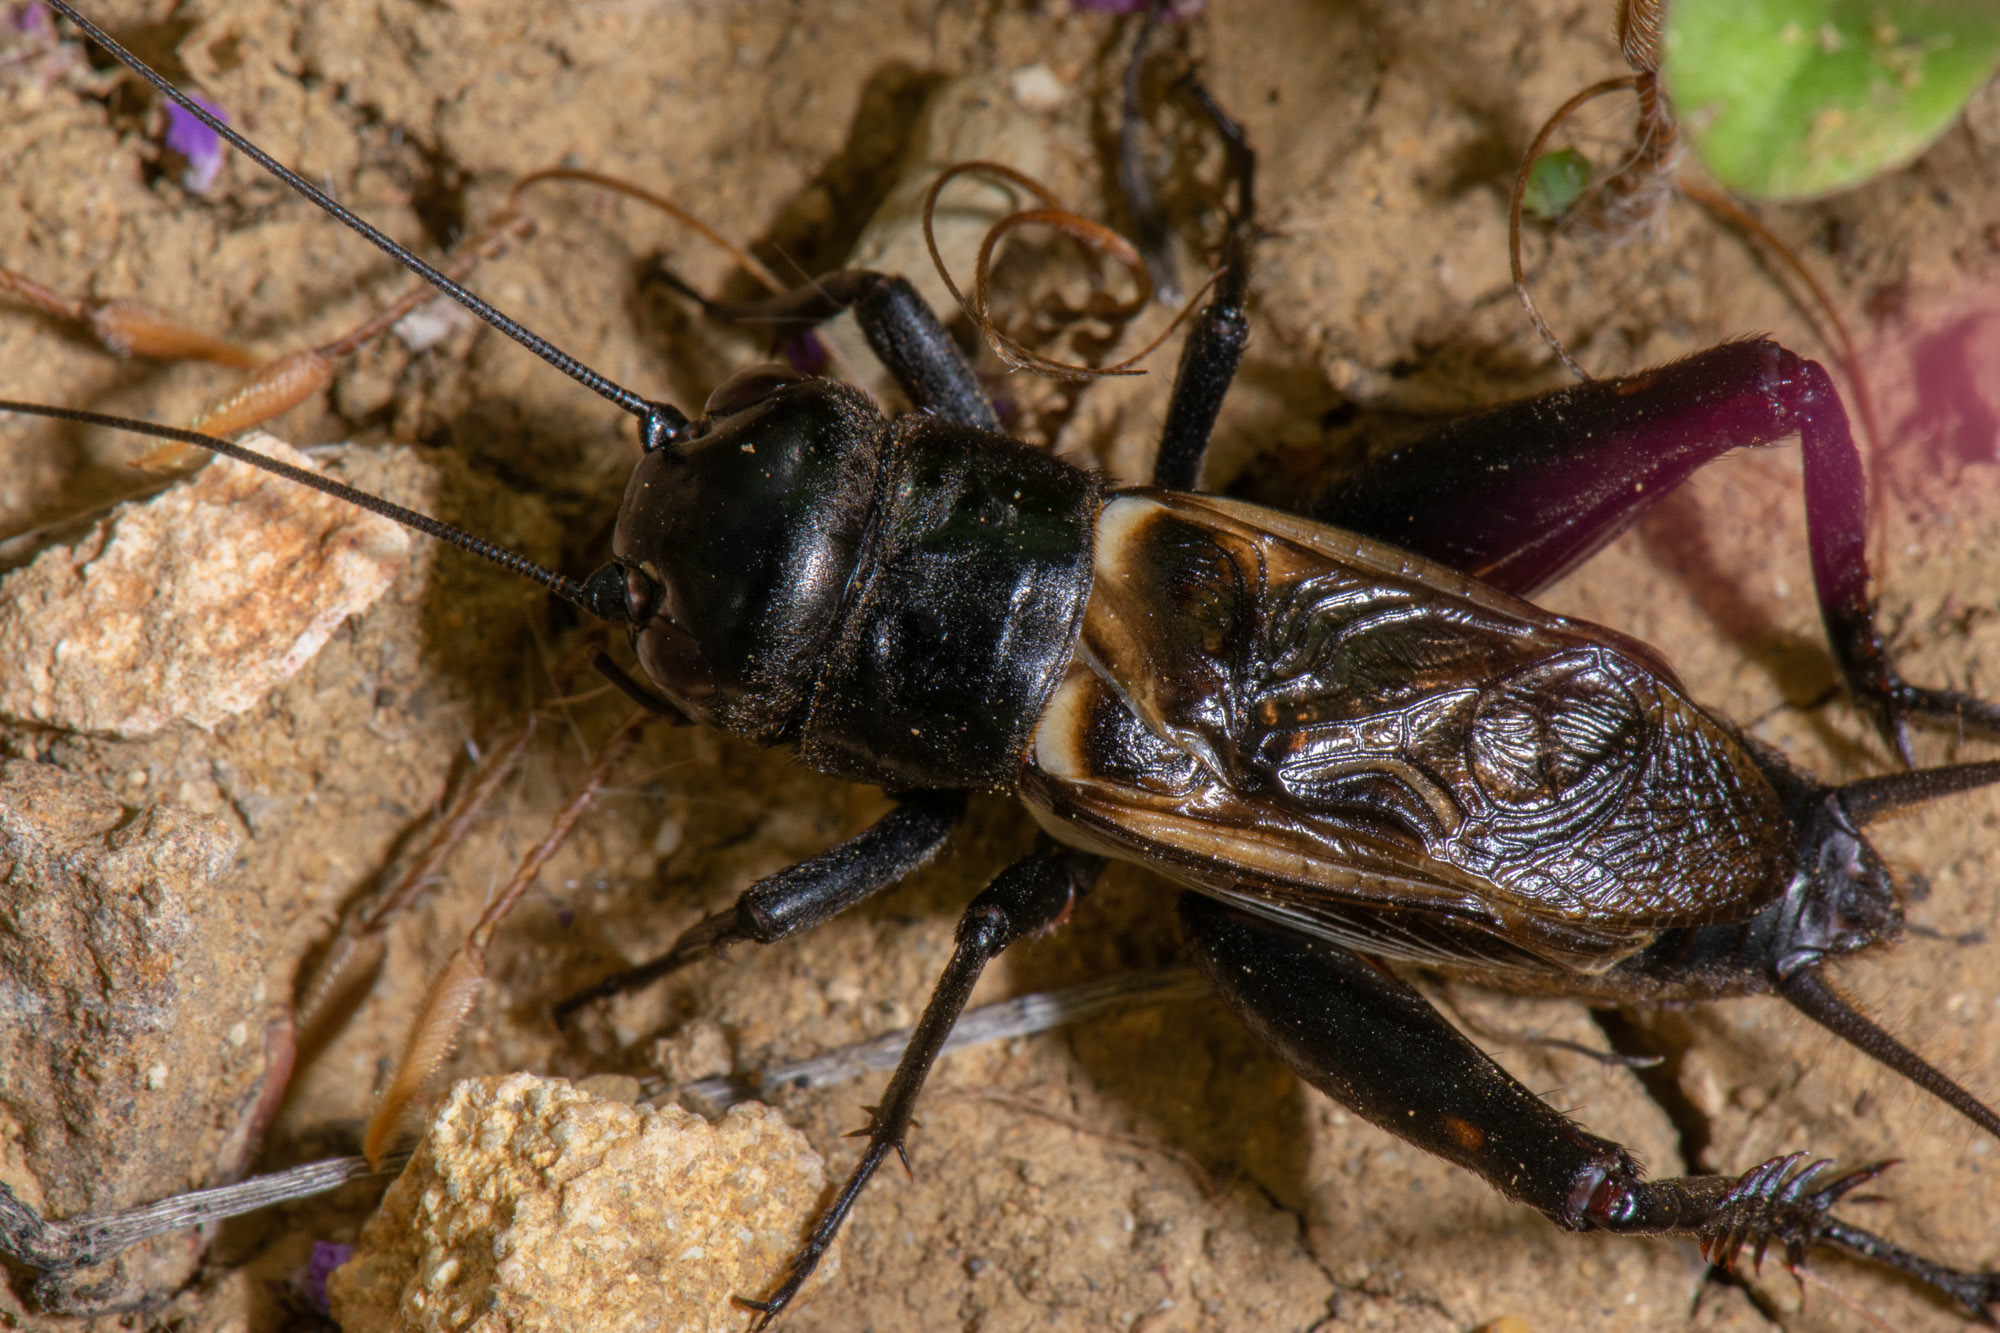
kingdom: Animalia
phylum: Arthropoda
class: Insecta
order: Orthoptera
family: Gryllidae
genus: Gryllus
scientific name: Gryllus brevicaudus
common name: Short-tailed field cricket
